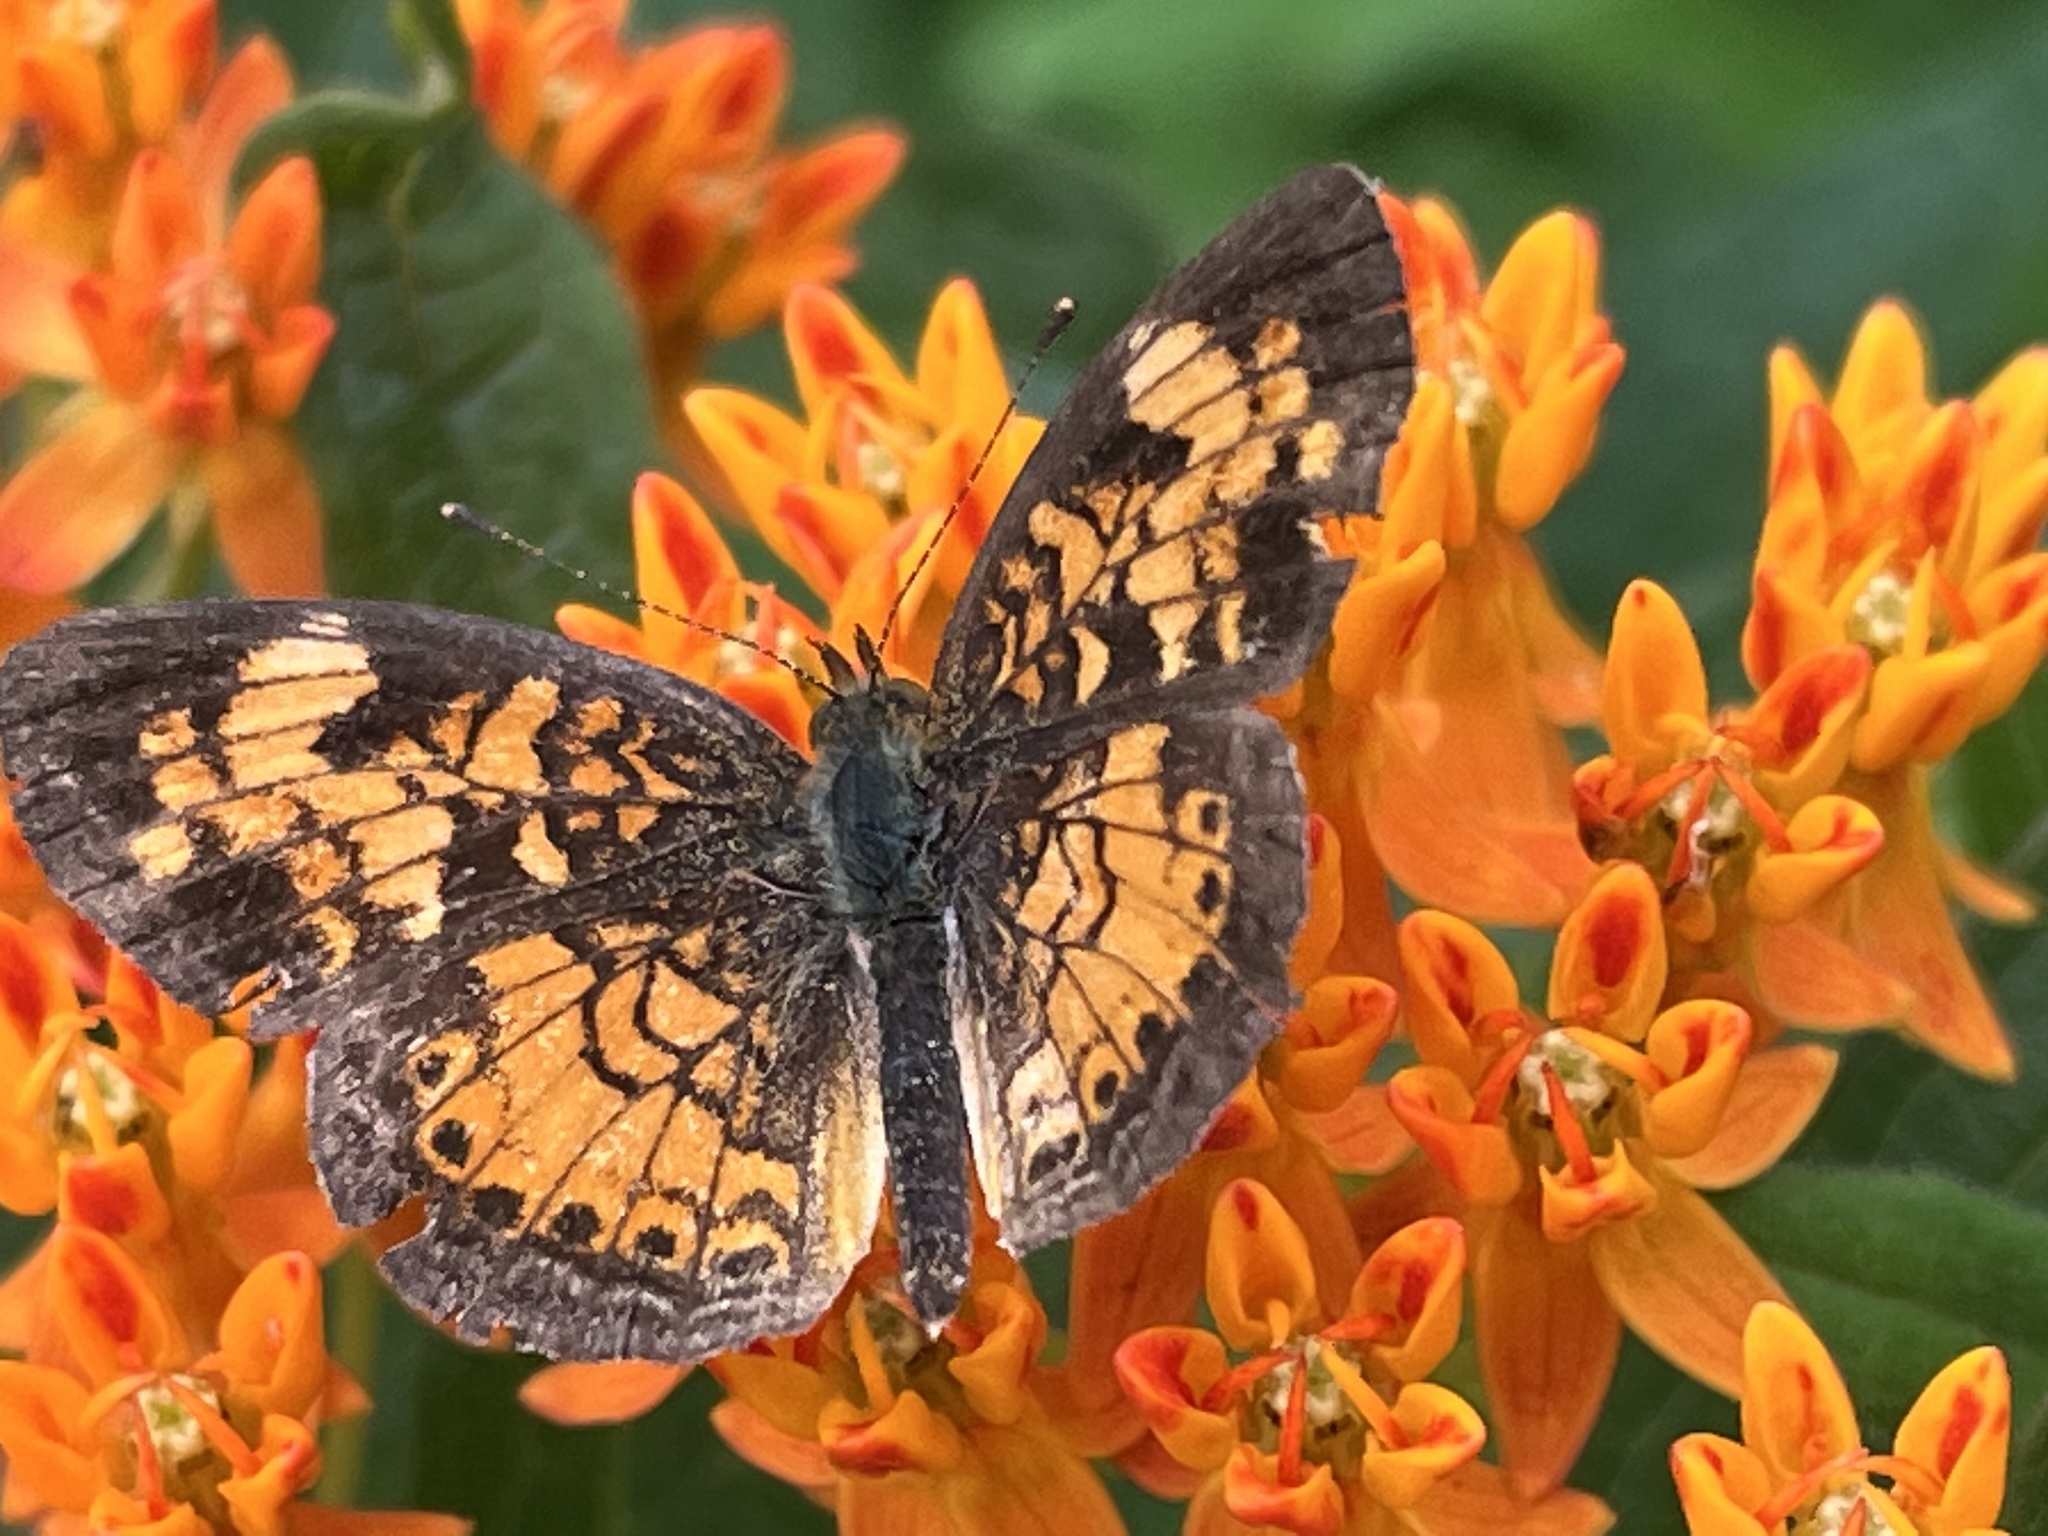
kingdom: Animalia
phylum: Arthropoda
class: Insecta
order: Lepidoptera
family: Nymphalidae
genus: Phyciodes
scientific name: Phyciodes tharos
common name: Pearl crescent
